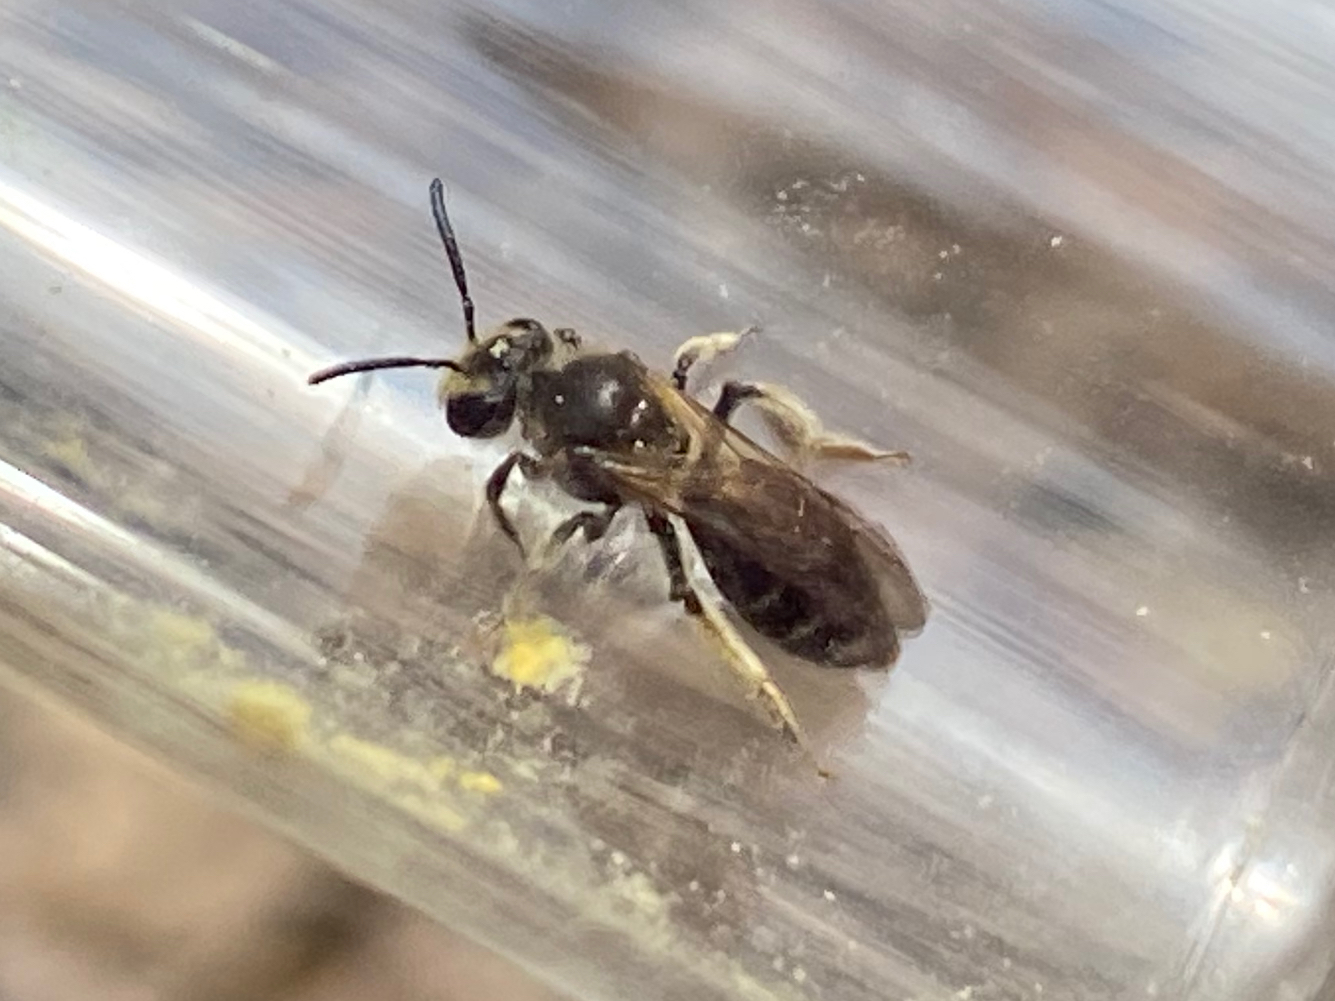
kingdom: Animalia
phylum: Arthropoda
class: Insecta
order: Hymenoptera
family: Andrenidae
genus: Andrena
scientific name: Andrena
